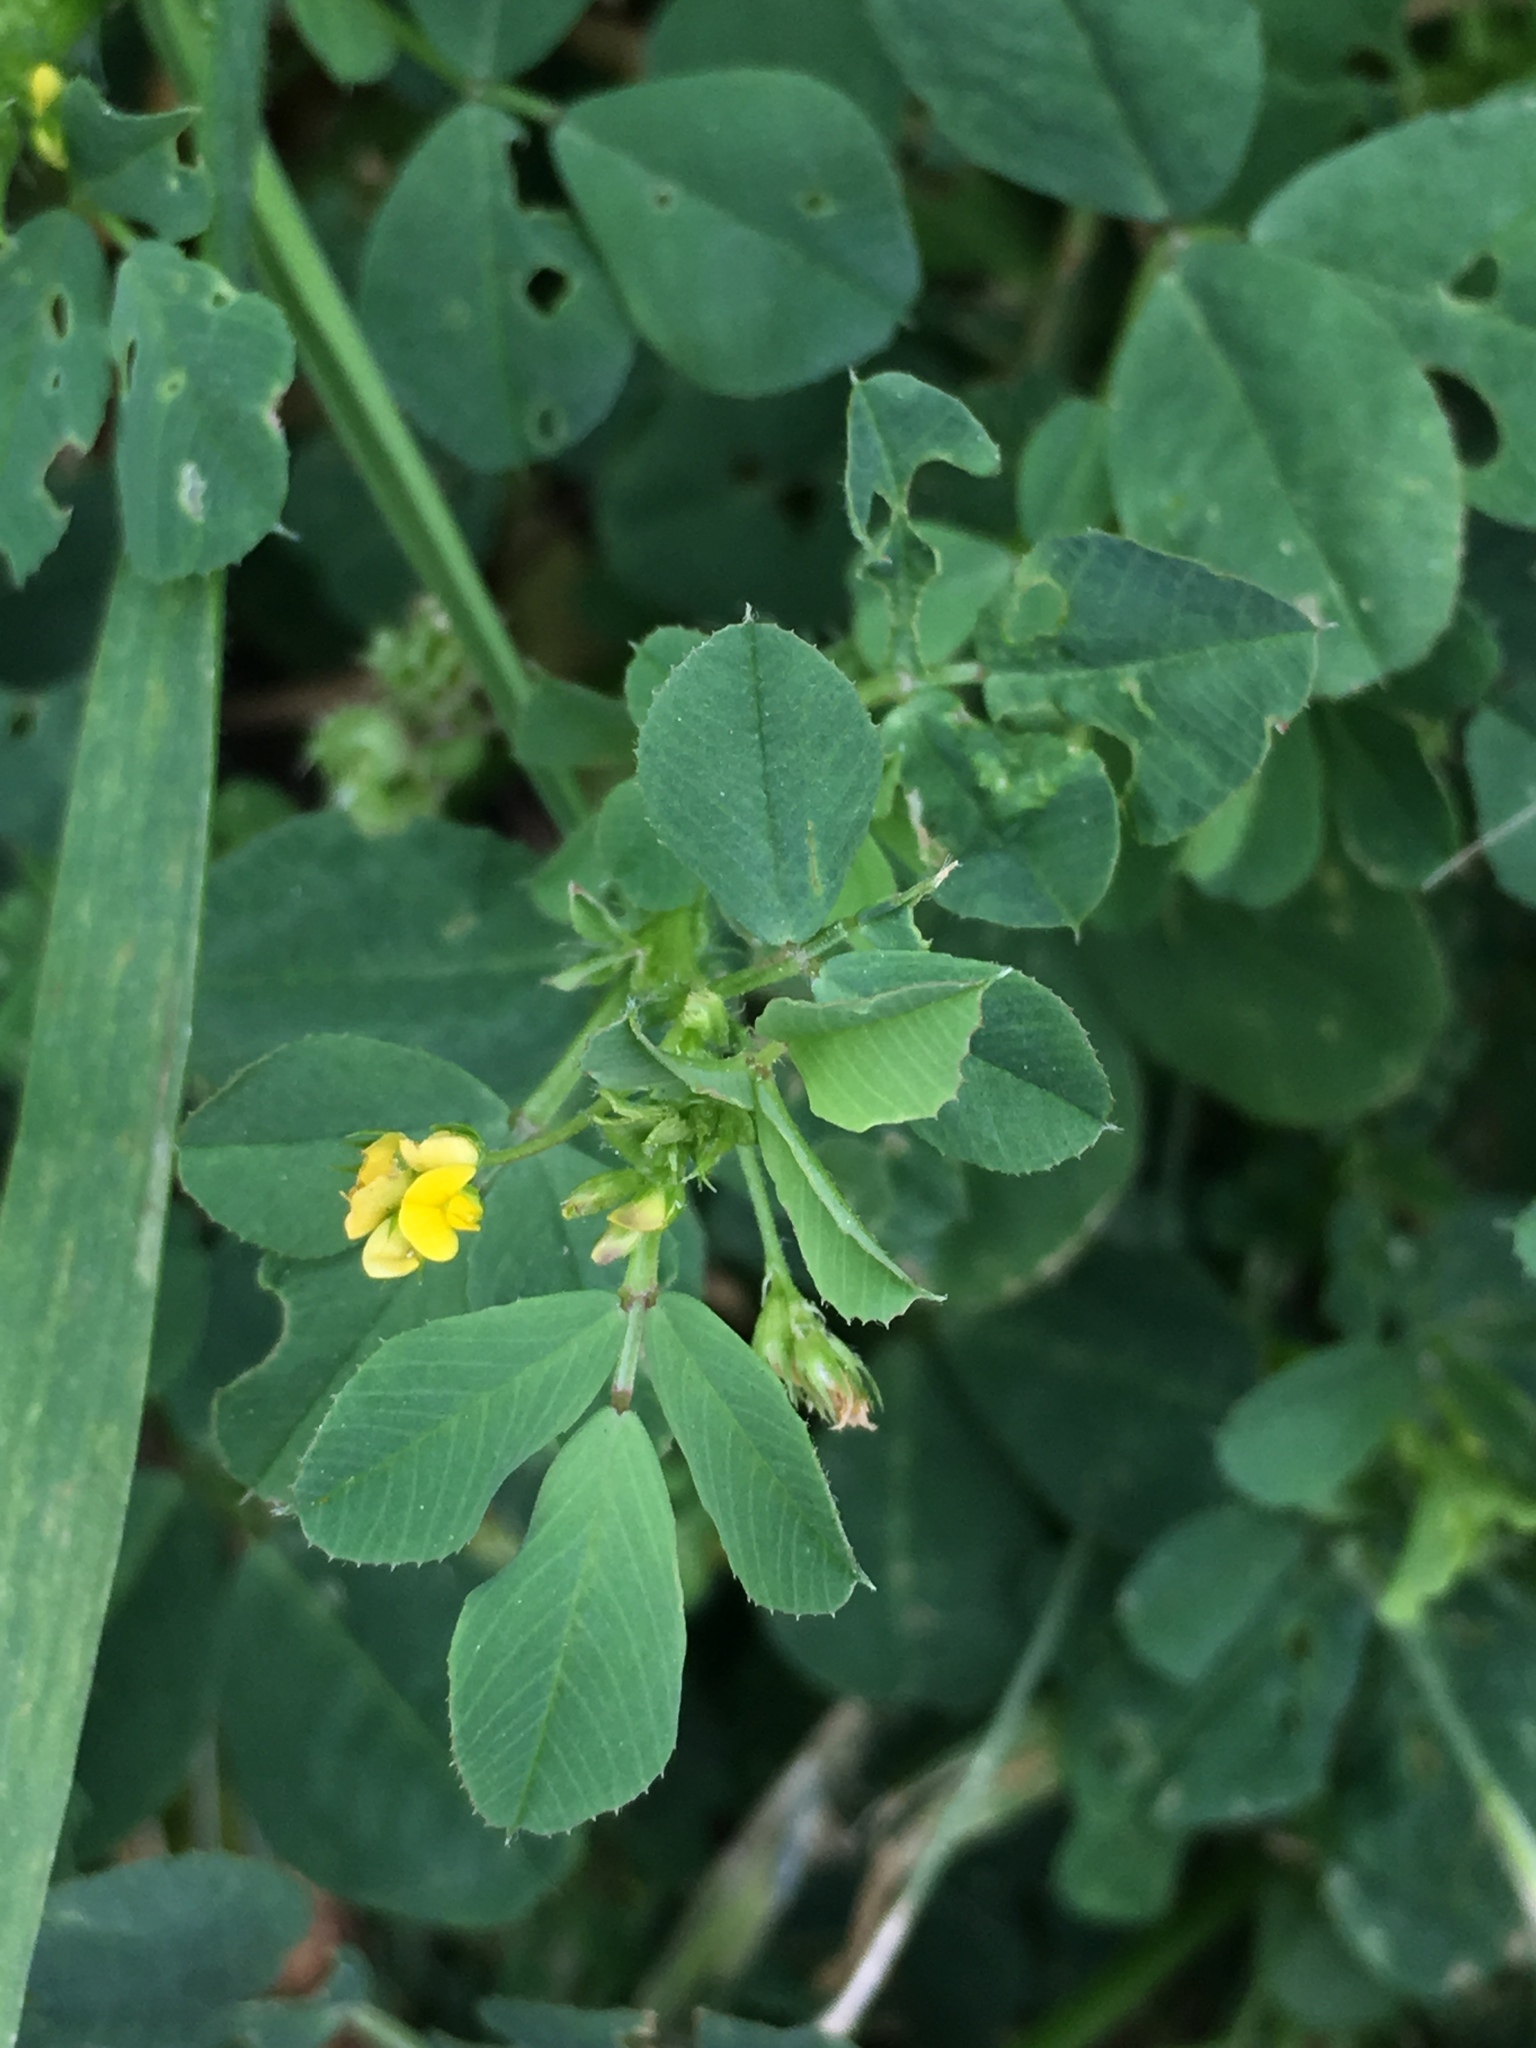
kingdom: Plantae
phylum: Tracheophyta
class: Magnoliopsida
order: Fabales
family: Fabaceae
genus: Medicago
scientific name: Medicago polymorpha
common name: Burclover
